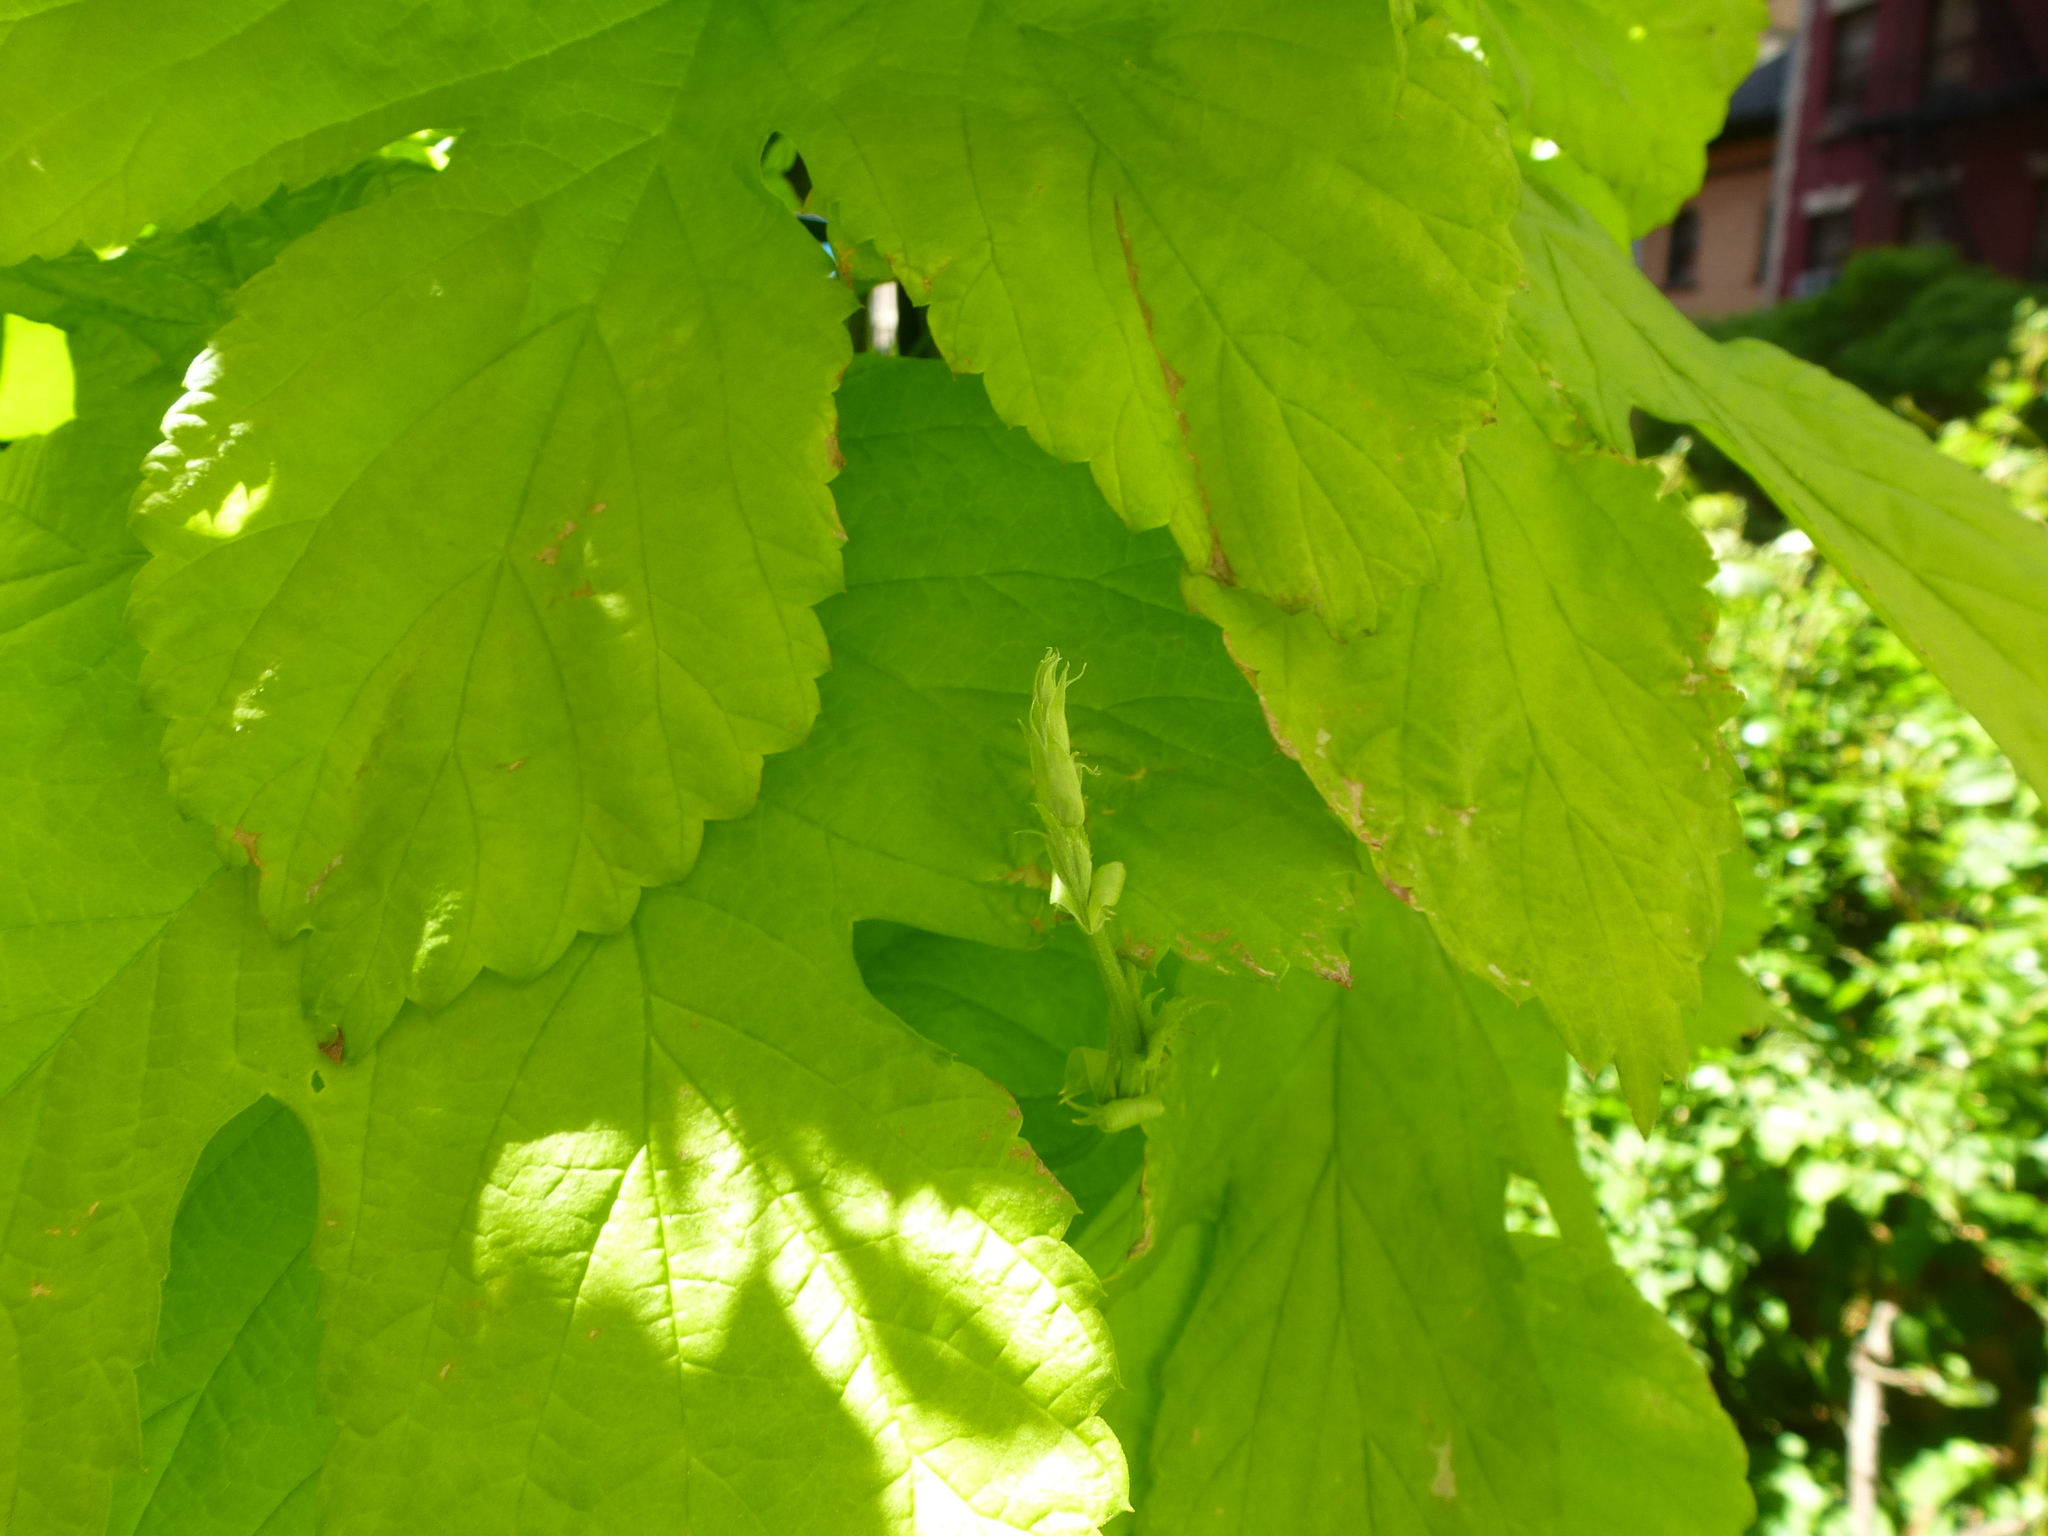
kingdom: Plantae
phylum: Tracheophyta
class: Magnoliopsida
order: Rosales
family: Cannabaceae
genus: Humulus
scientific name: Humulus lupulus
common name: Hop
